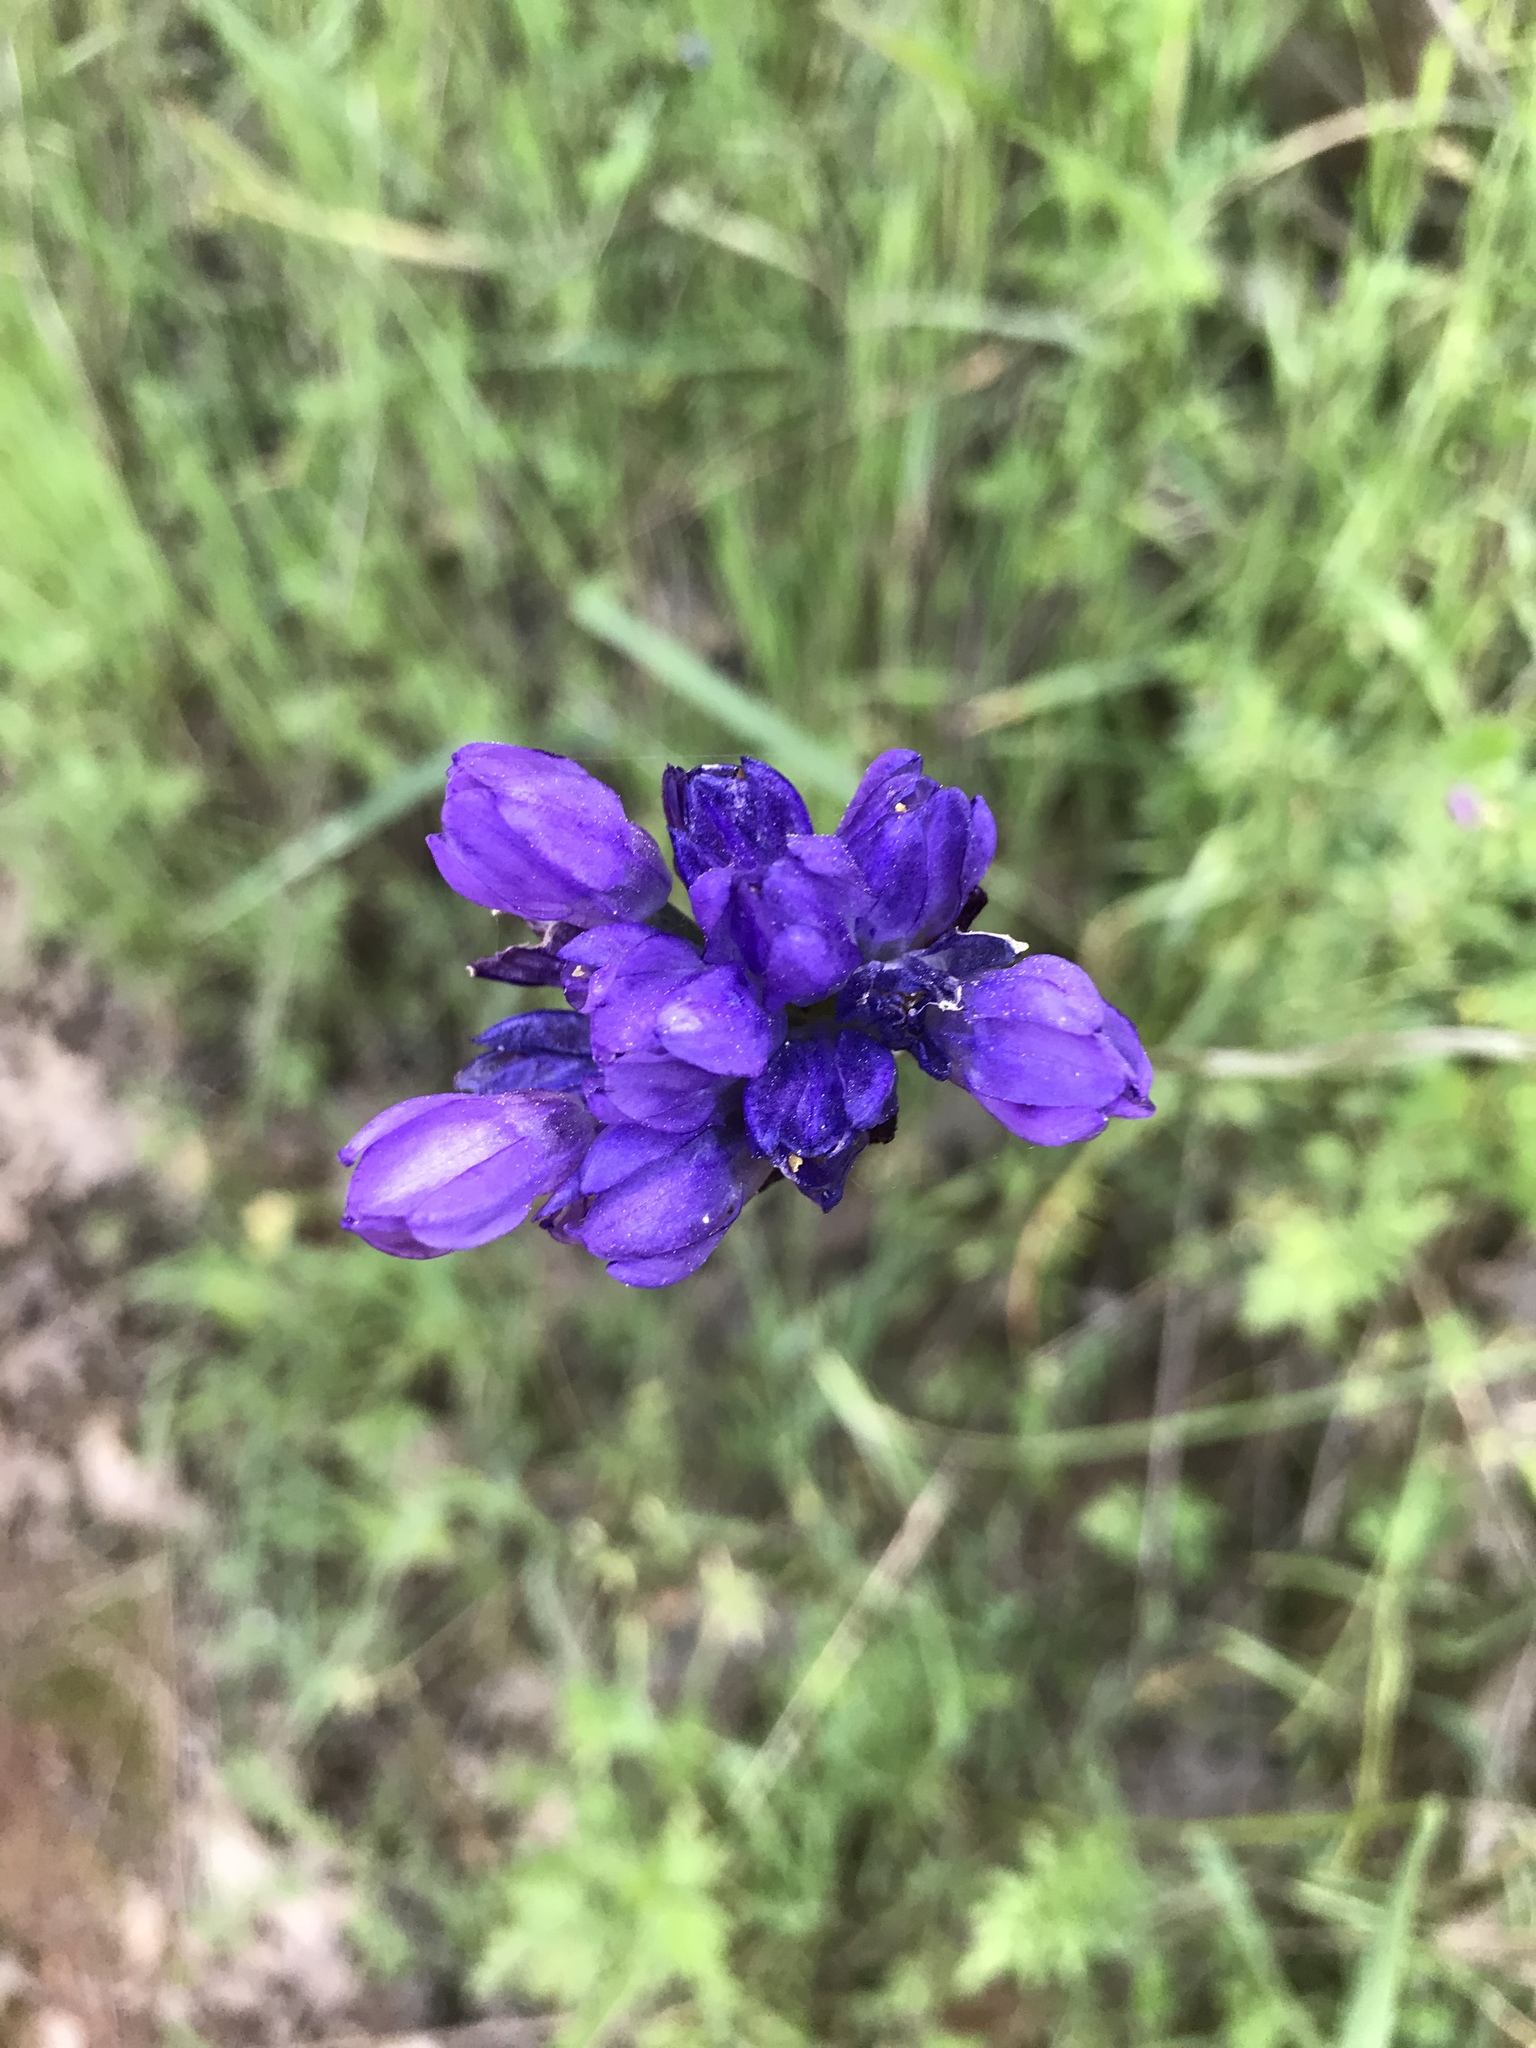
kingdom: Plantae
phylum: Tracheophyta
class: Liliopsida
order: Asparagales
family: Asparagaceae
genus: Dipterostemon
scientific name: Dipterostemon capitatus
